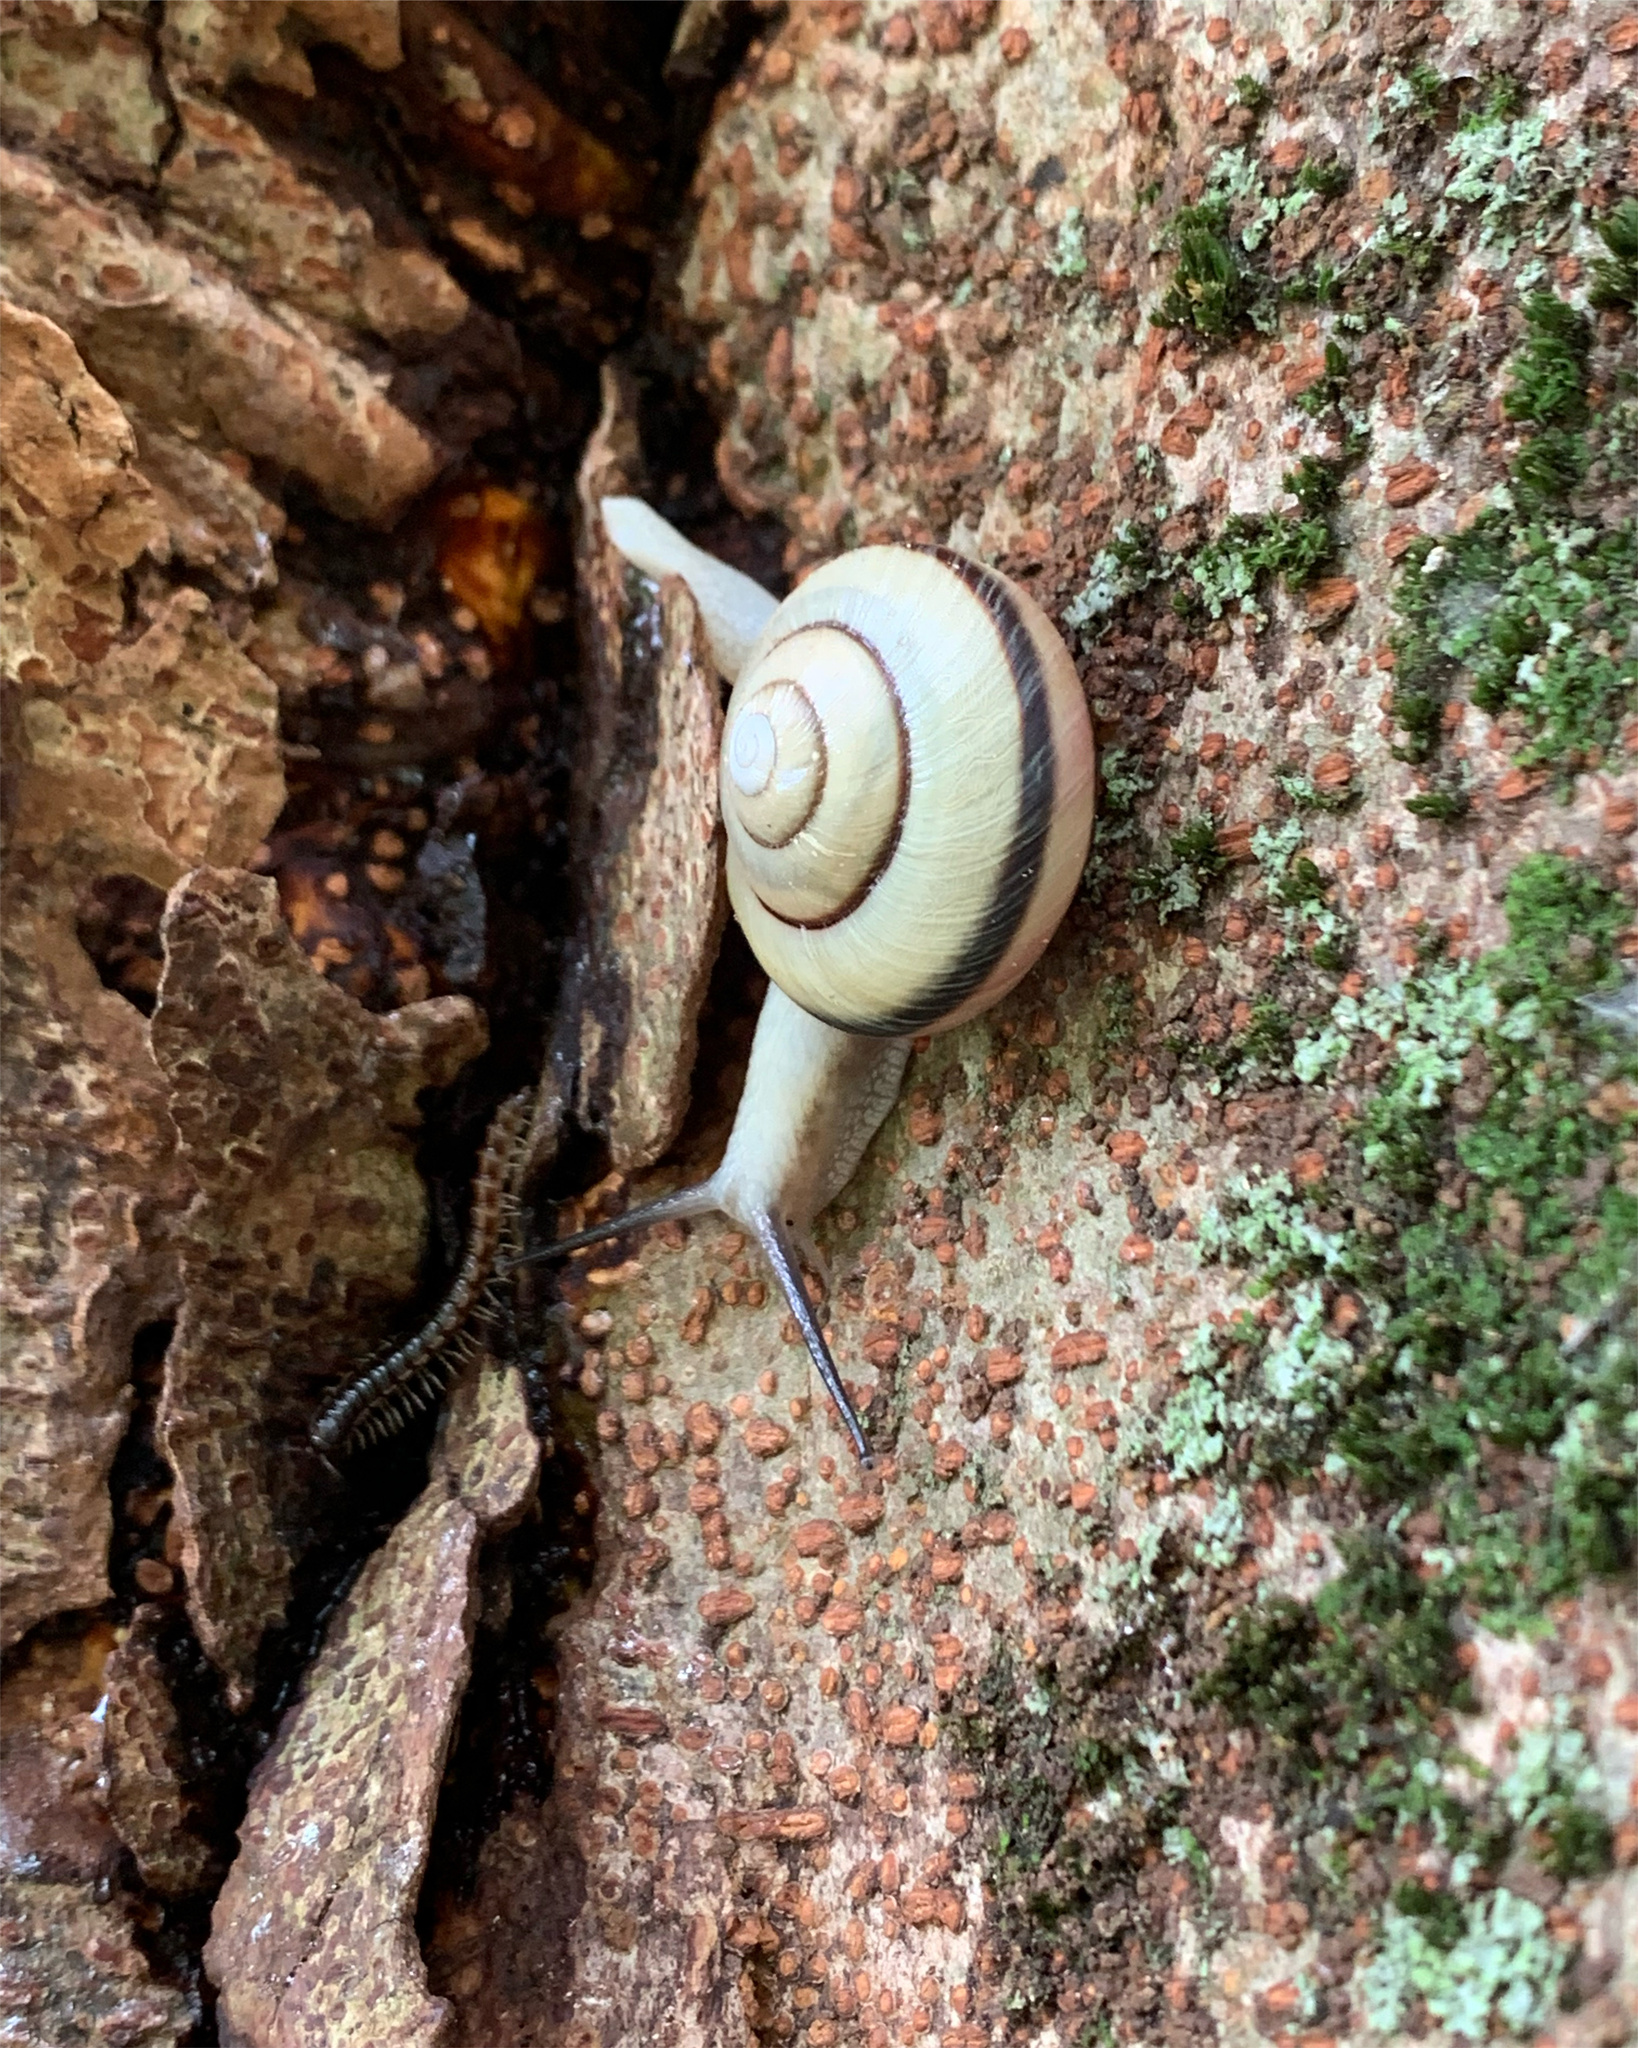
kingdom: Animalia
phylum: Mollusca
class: Gastropoda
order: Stylommatophora
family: Camaenidae
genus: Euhadra
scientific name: Euhadra amaliae
